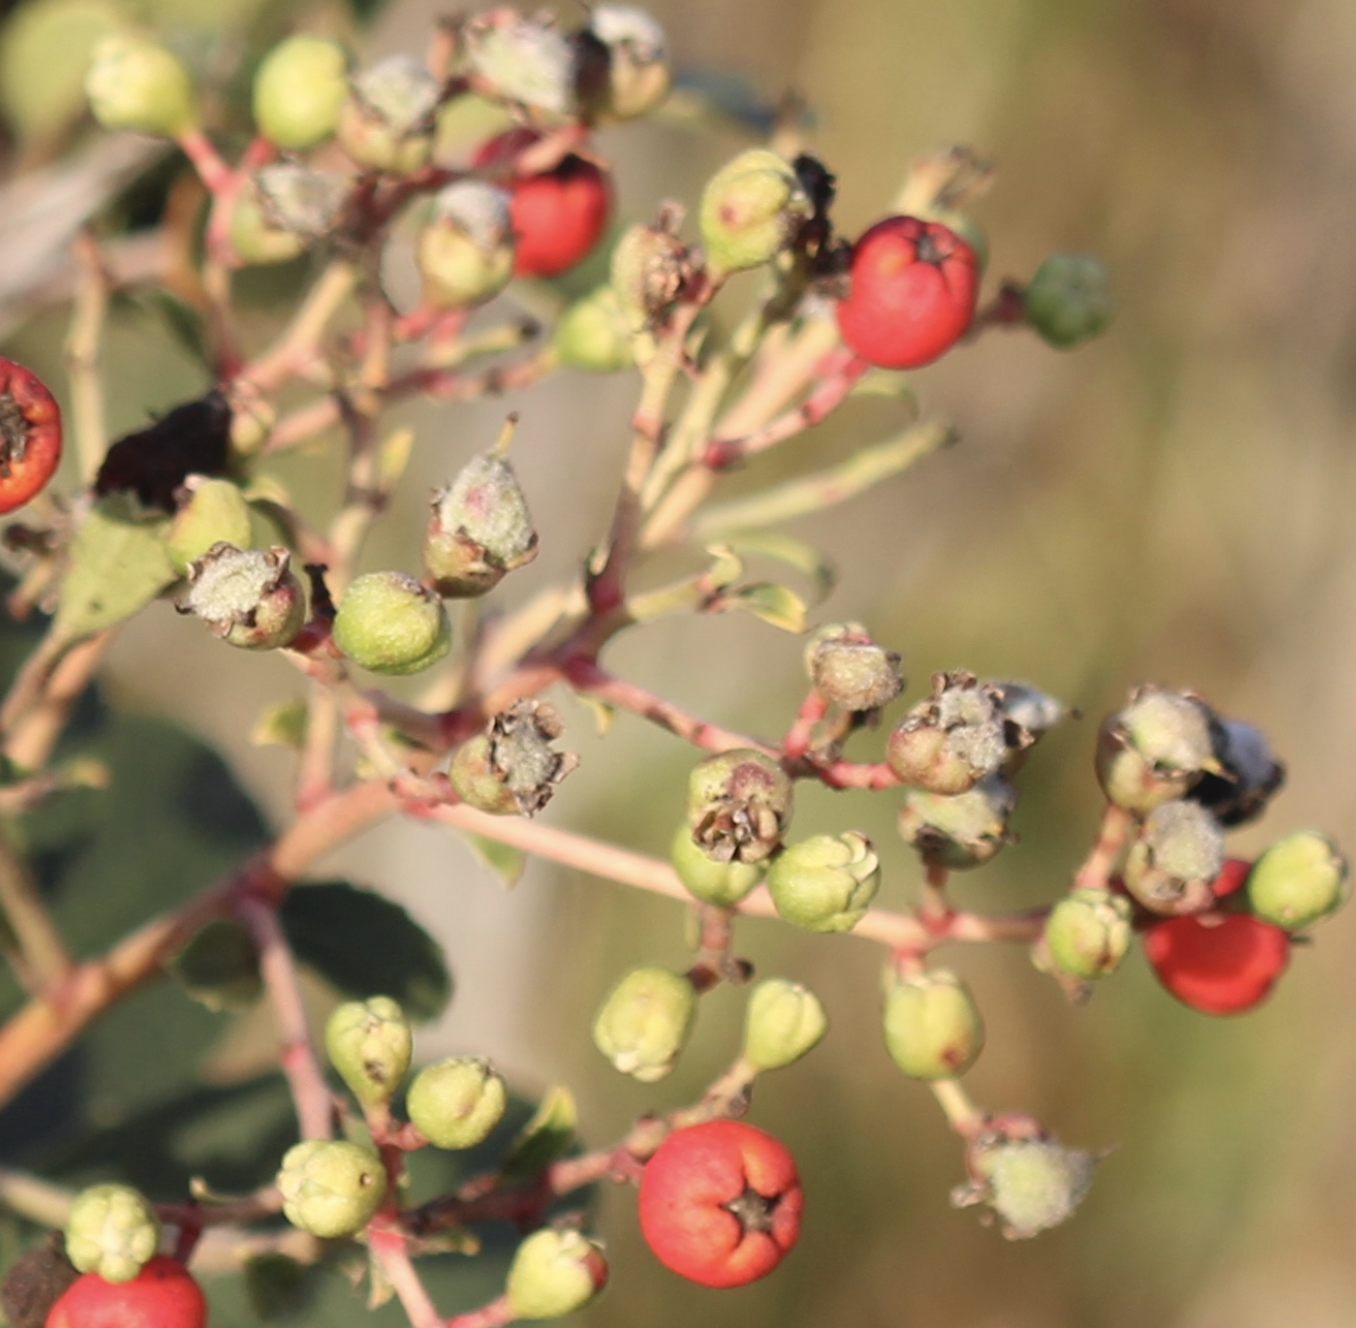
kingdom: Animalia
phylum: Arthropoda
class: Insecta
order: Diptera
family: Cecidomyiidae
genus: Asphondylia
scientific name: Asphondylia photiniae
